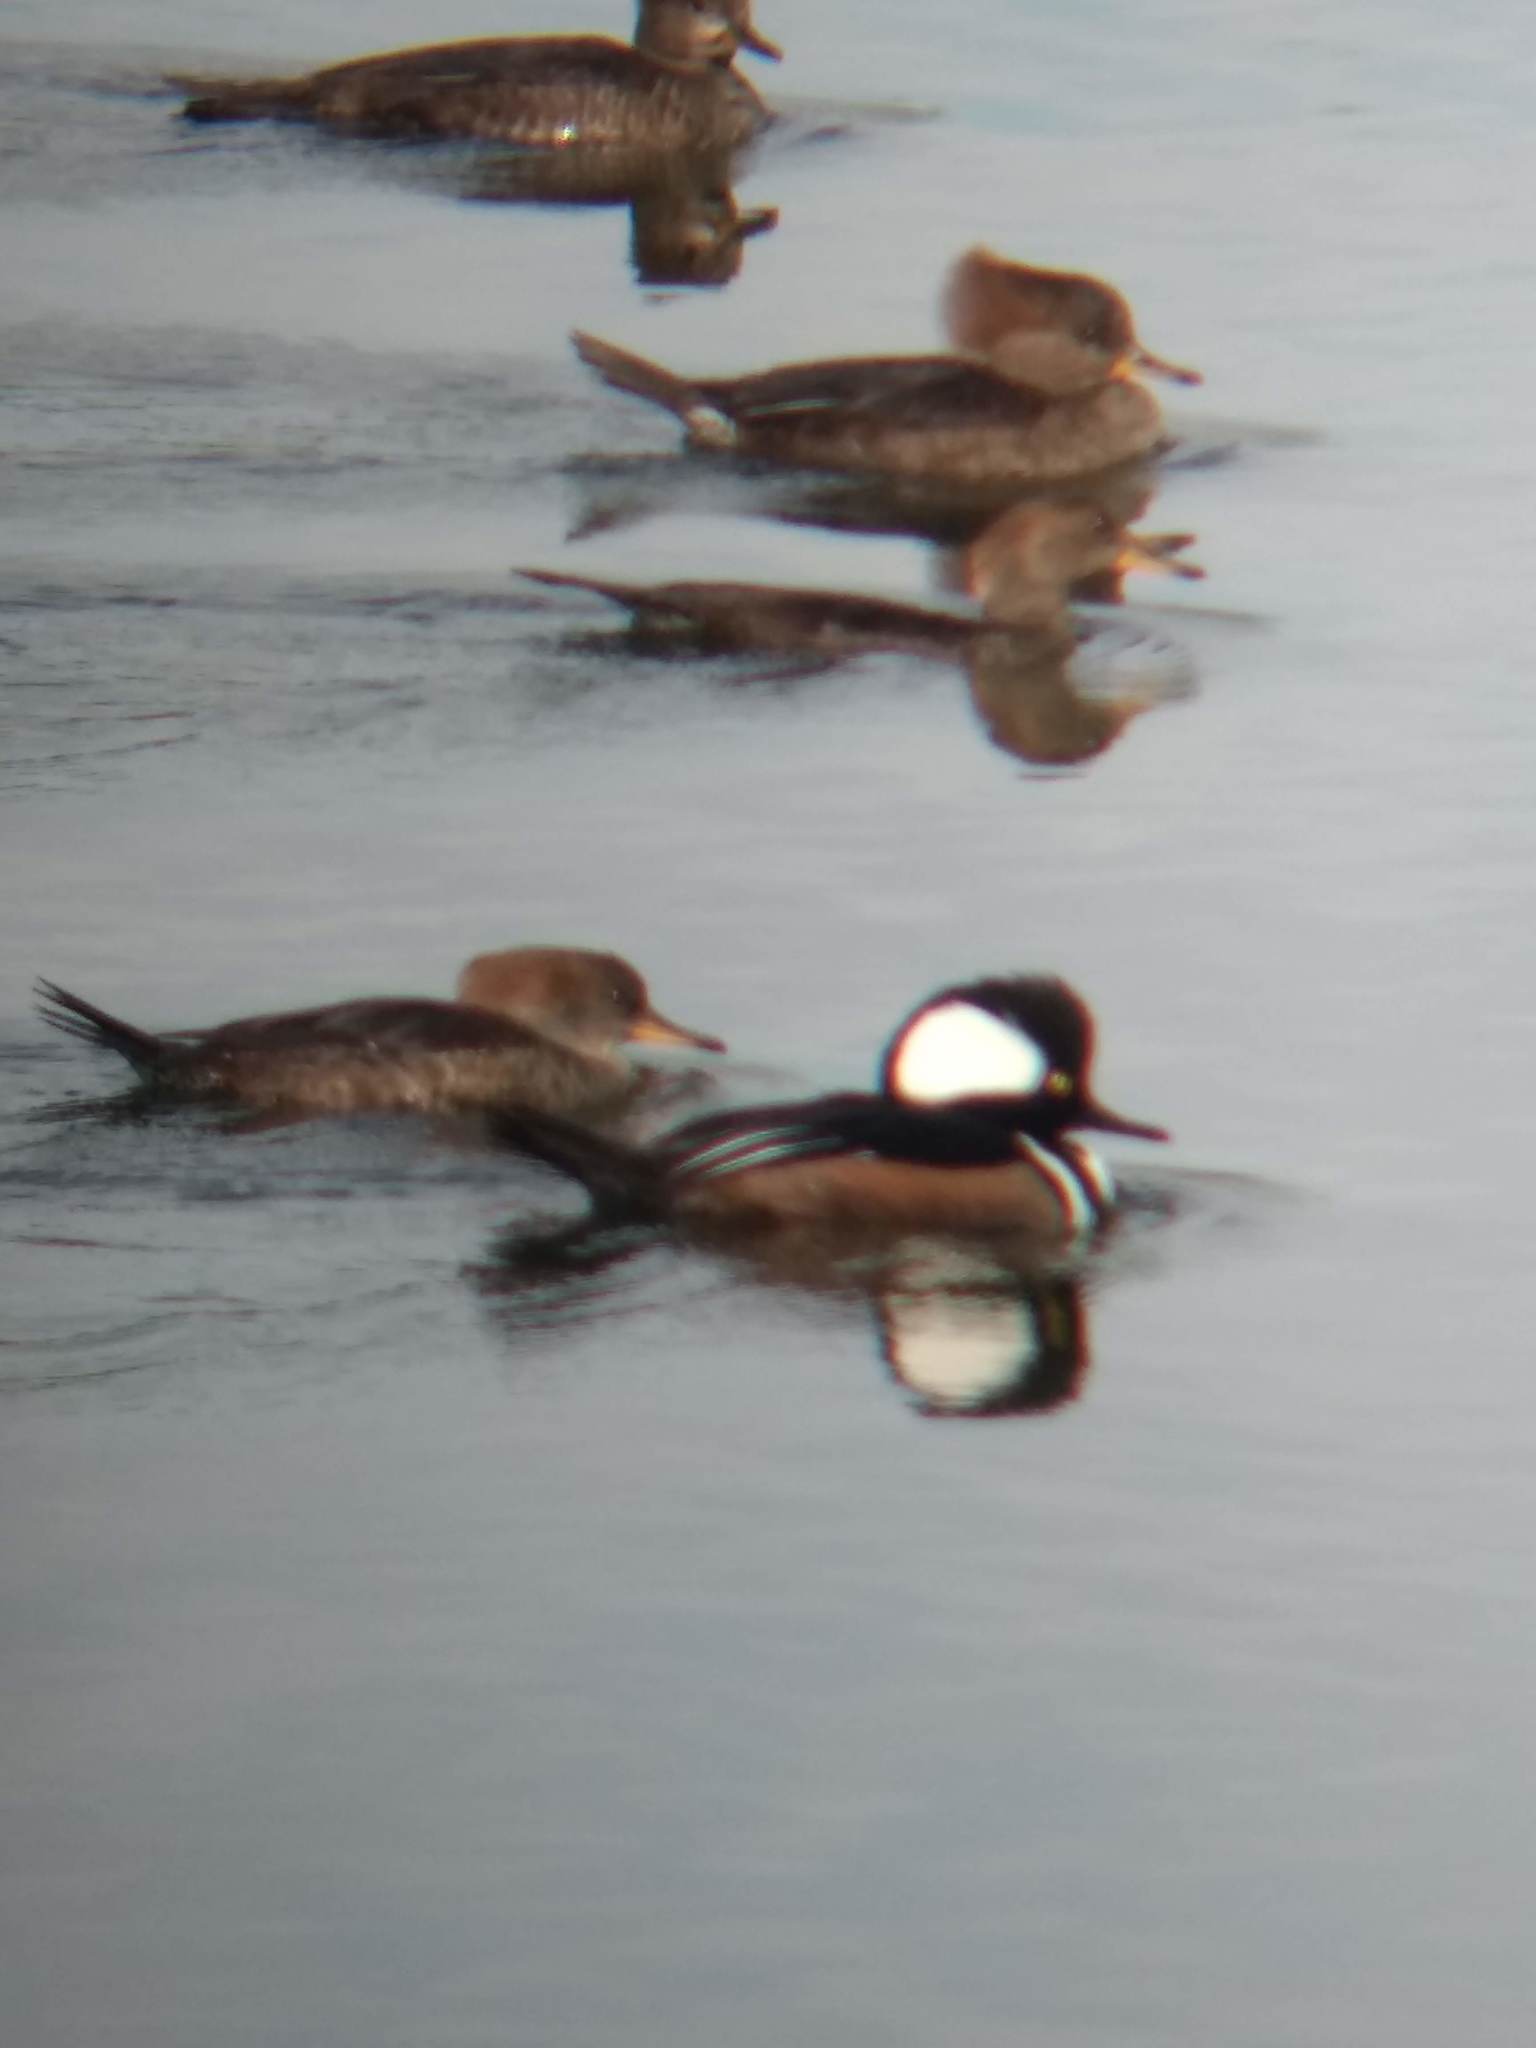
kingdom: Animalia
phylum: Chordata
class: Aves
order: Anseriformes
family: Anatidae
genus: Lophodytes
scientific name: Lophodytes cucullatus
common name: Hooded merganser
